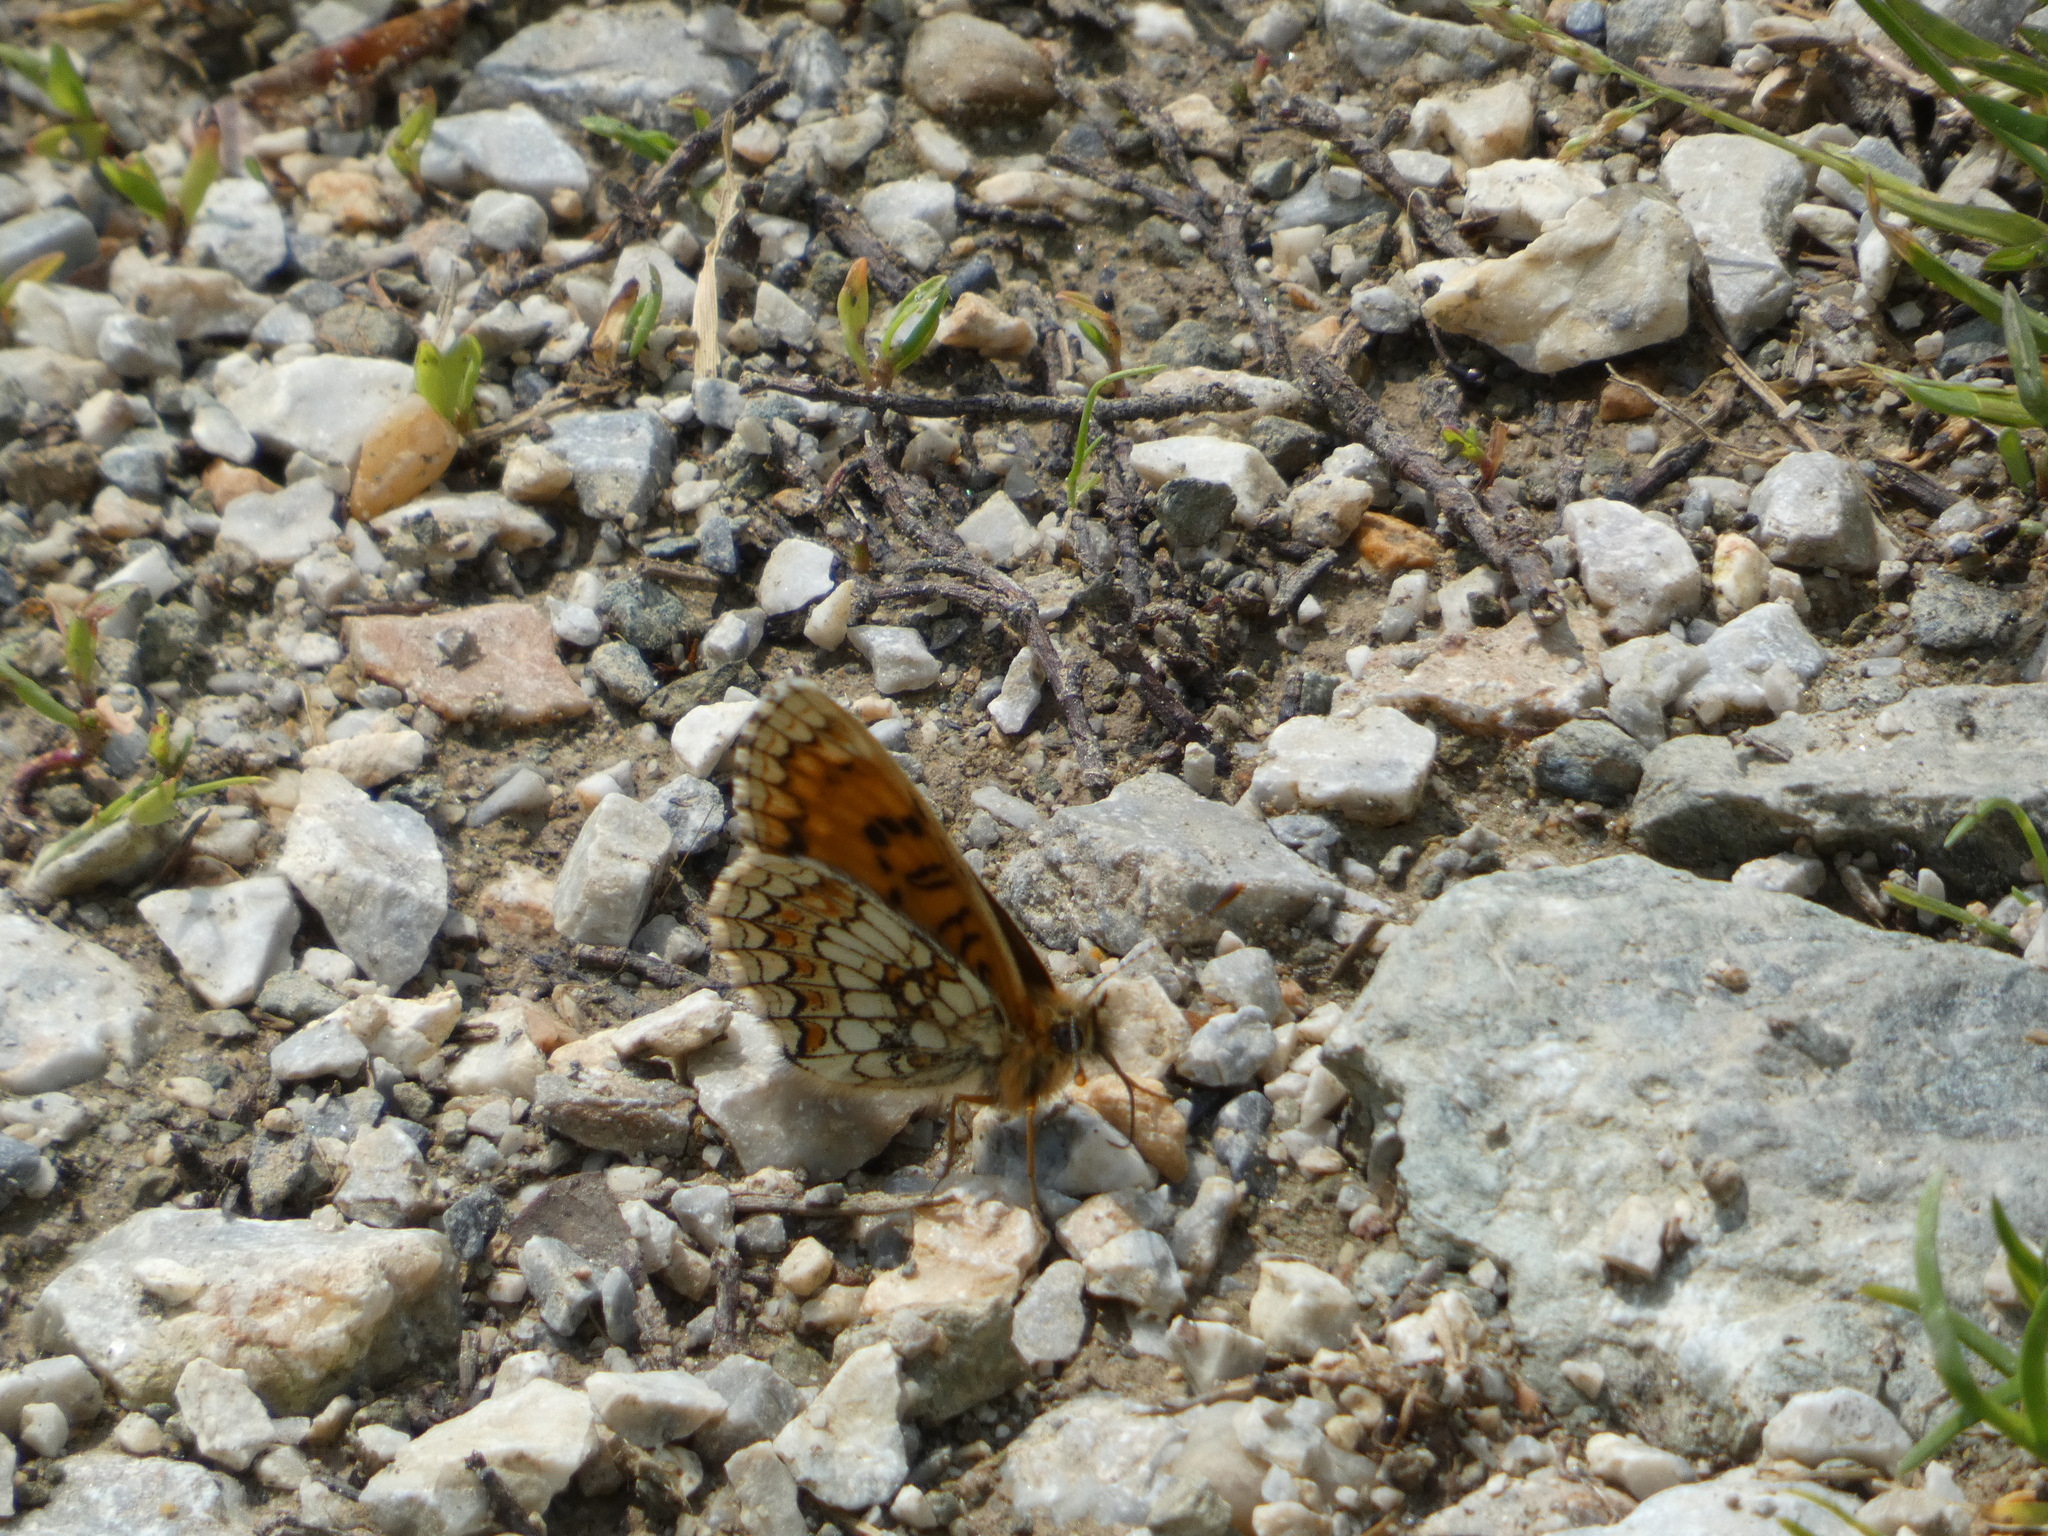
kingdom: Animalia
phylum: Arthropoda
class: Insecta
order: Lepidoptera
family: Nymphalidae
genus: Melitaea
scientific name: Melitaea athalia
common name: Heath fritillary
